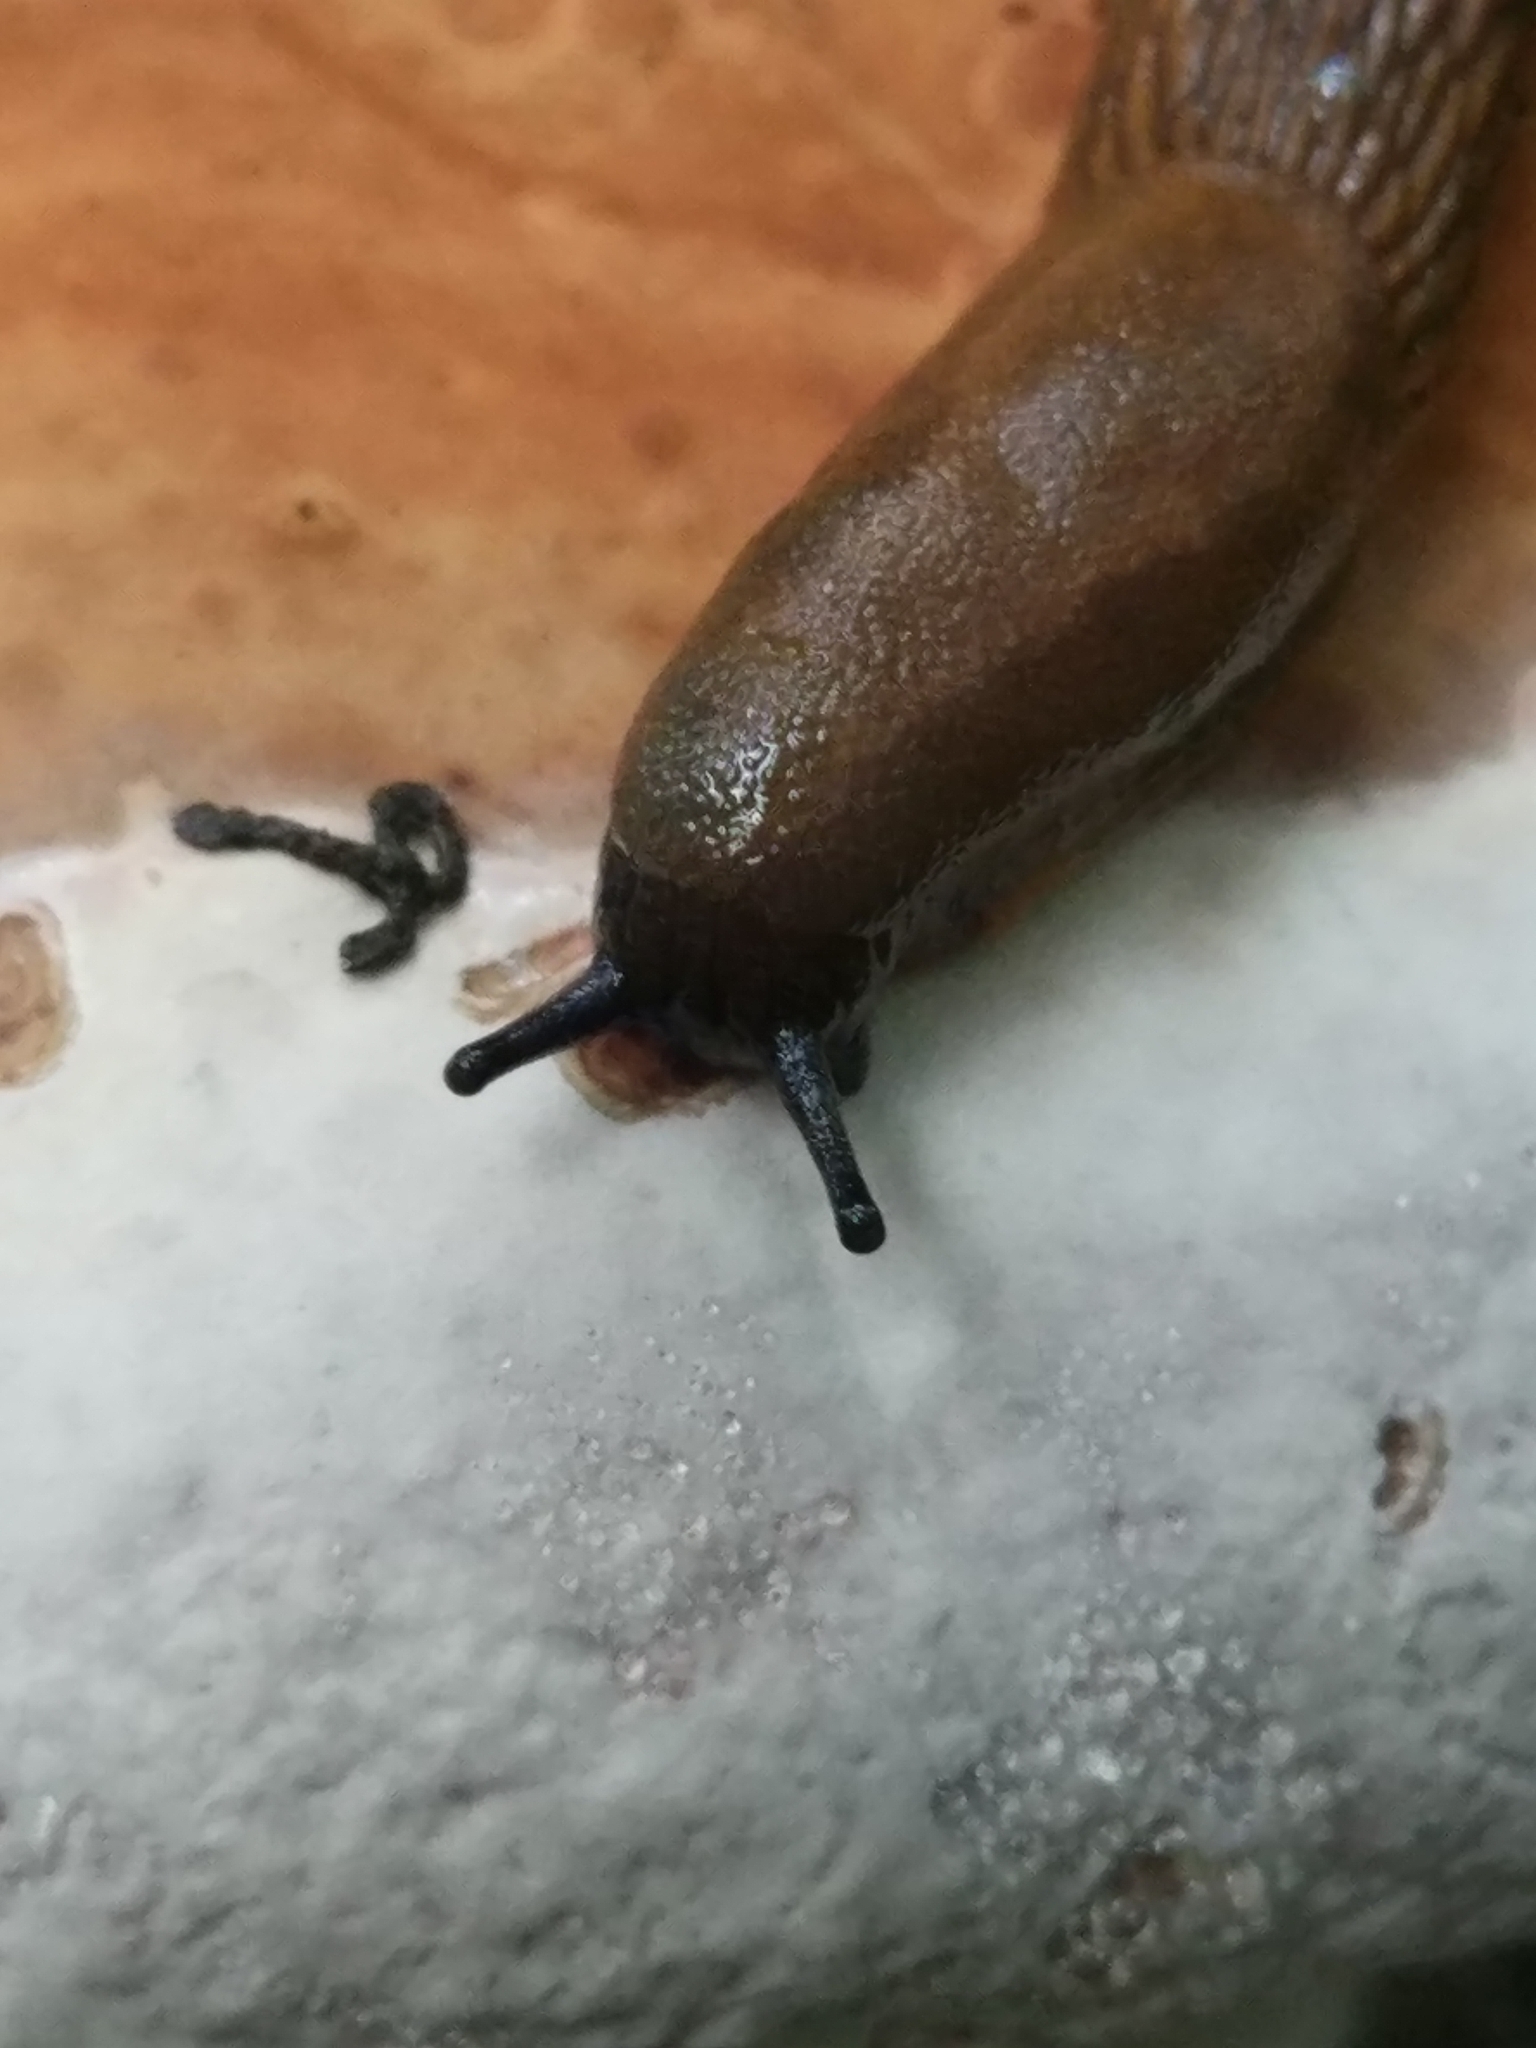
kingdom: Animalia
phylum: Mollusca
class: Gastropoda
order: Stylommatophora
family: Arionidae
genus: Arion
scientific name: Arion
